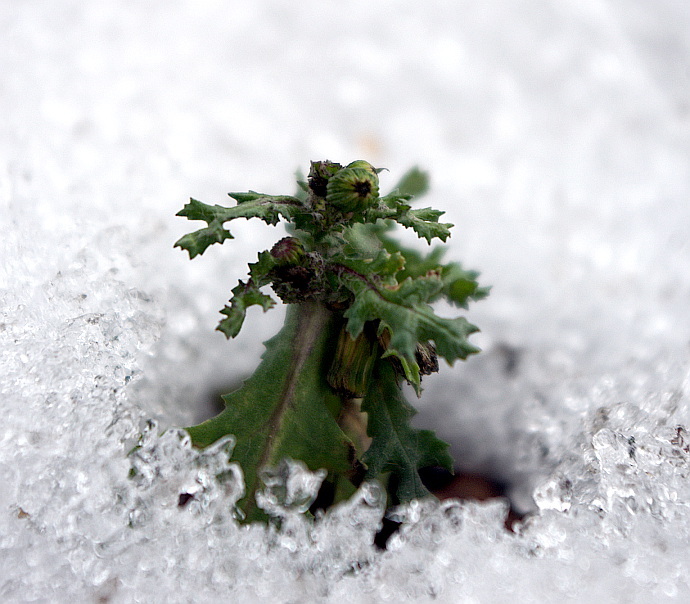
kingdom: Plantae
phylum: Tracheophyta
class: Magnoliopsida
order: Asterales
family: Asteraceae
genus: Senecio
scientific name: Senecio vulgaris
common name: Old-man-in-the-spring
